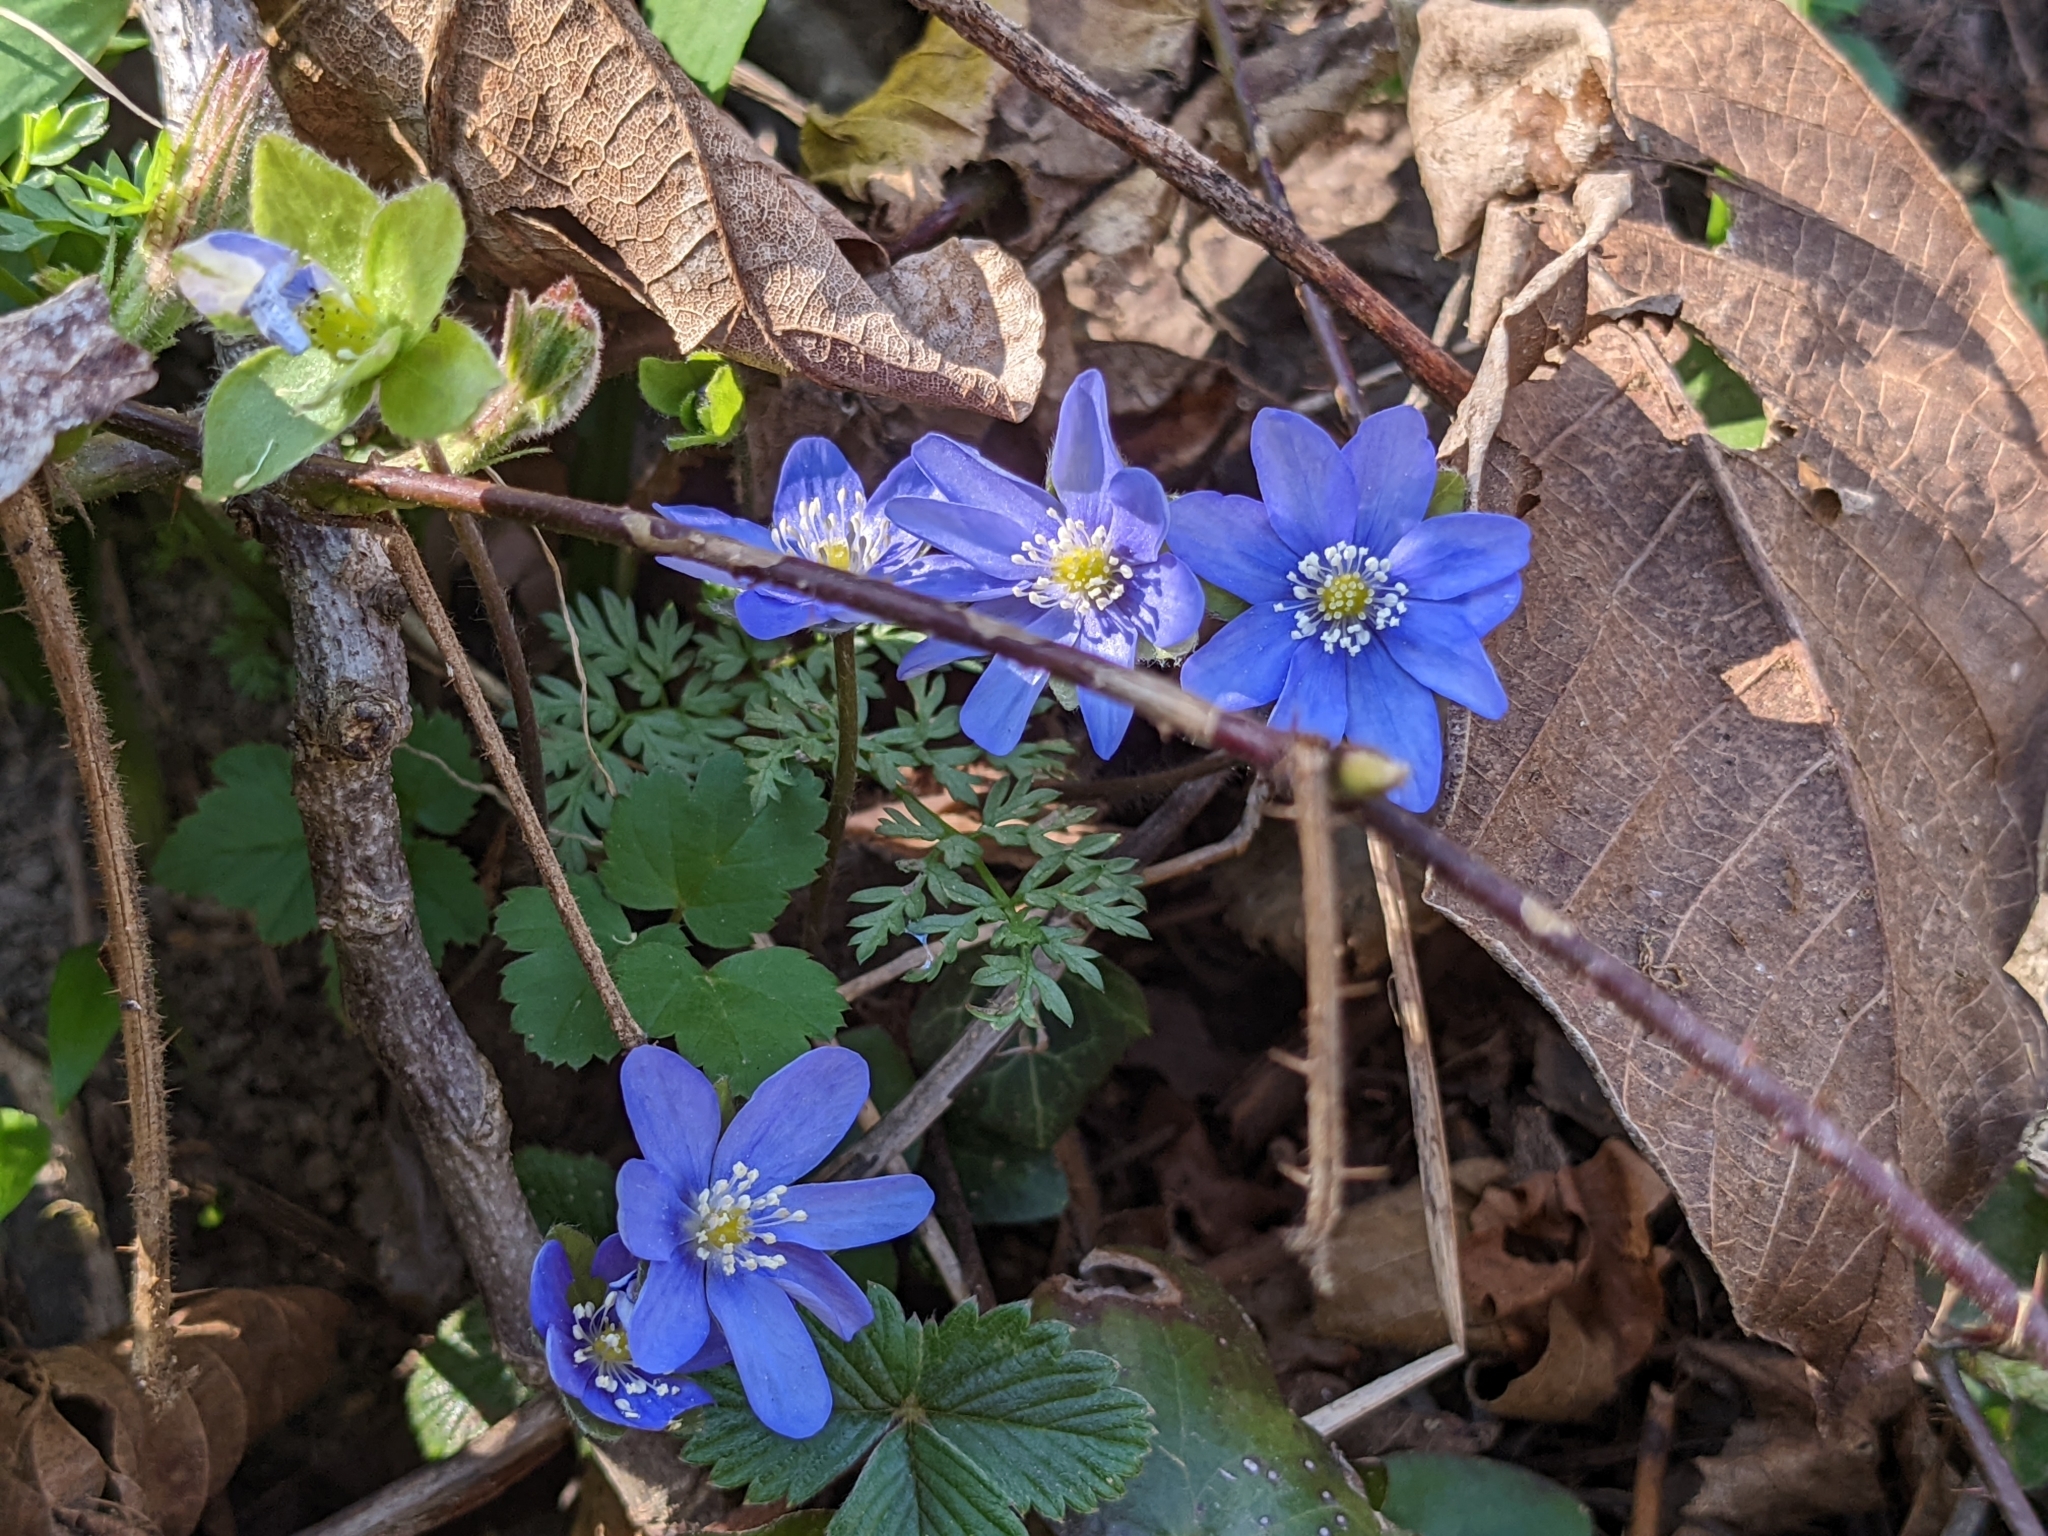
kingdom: Plantae
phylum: Tracheophyta
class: Magnoliopsida
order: Ranunculales
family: Ranunculaceae
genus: Hepatica
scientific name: Hepatica nobilis
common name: Liverleaf
